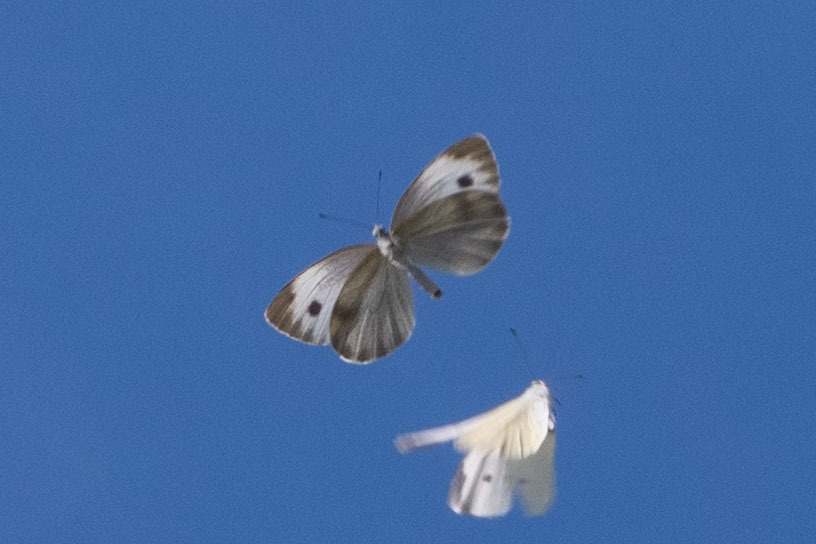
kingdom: Animalia
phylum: Arthropoda
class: Insecta
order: Lepidoptera
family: Pieridae
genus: Pieris
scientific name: Pieris canidia
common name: Indian cabbage white
